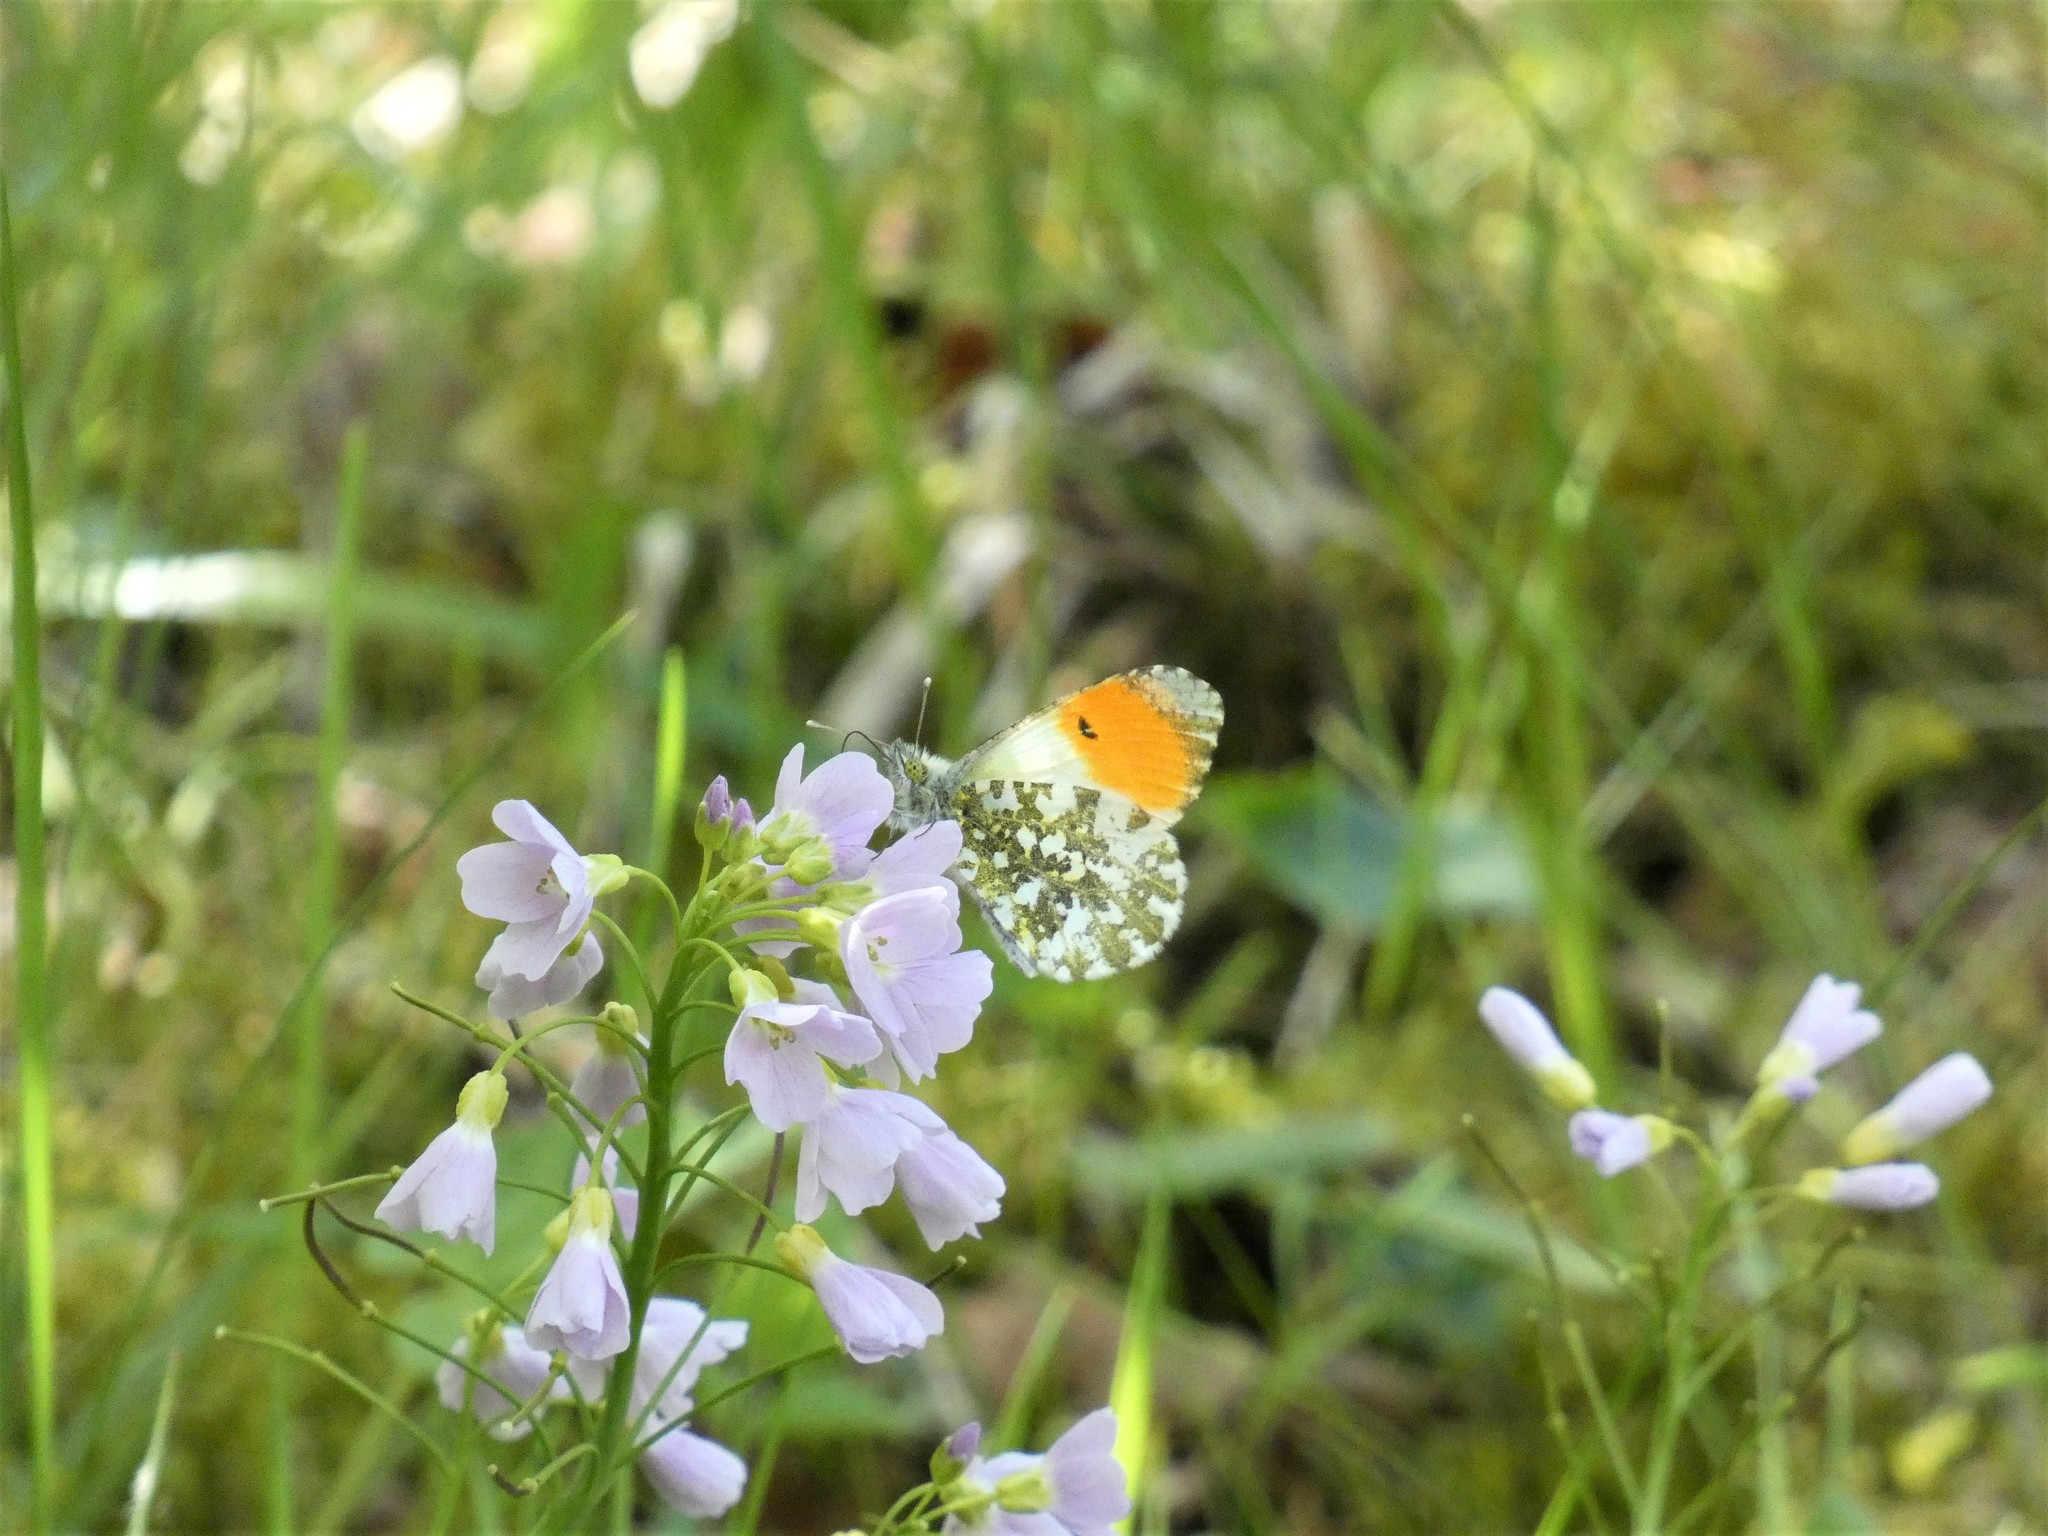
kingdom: Animalia
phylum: Arthropoda
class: Insecta
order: Lepidoptera
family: Pieridae
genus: Anthocharis
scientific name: Anthocharis cardamines
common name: Orange-tip
